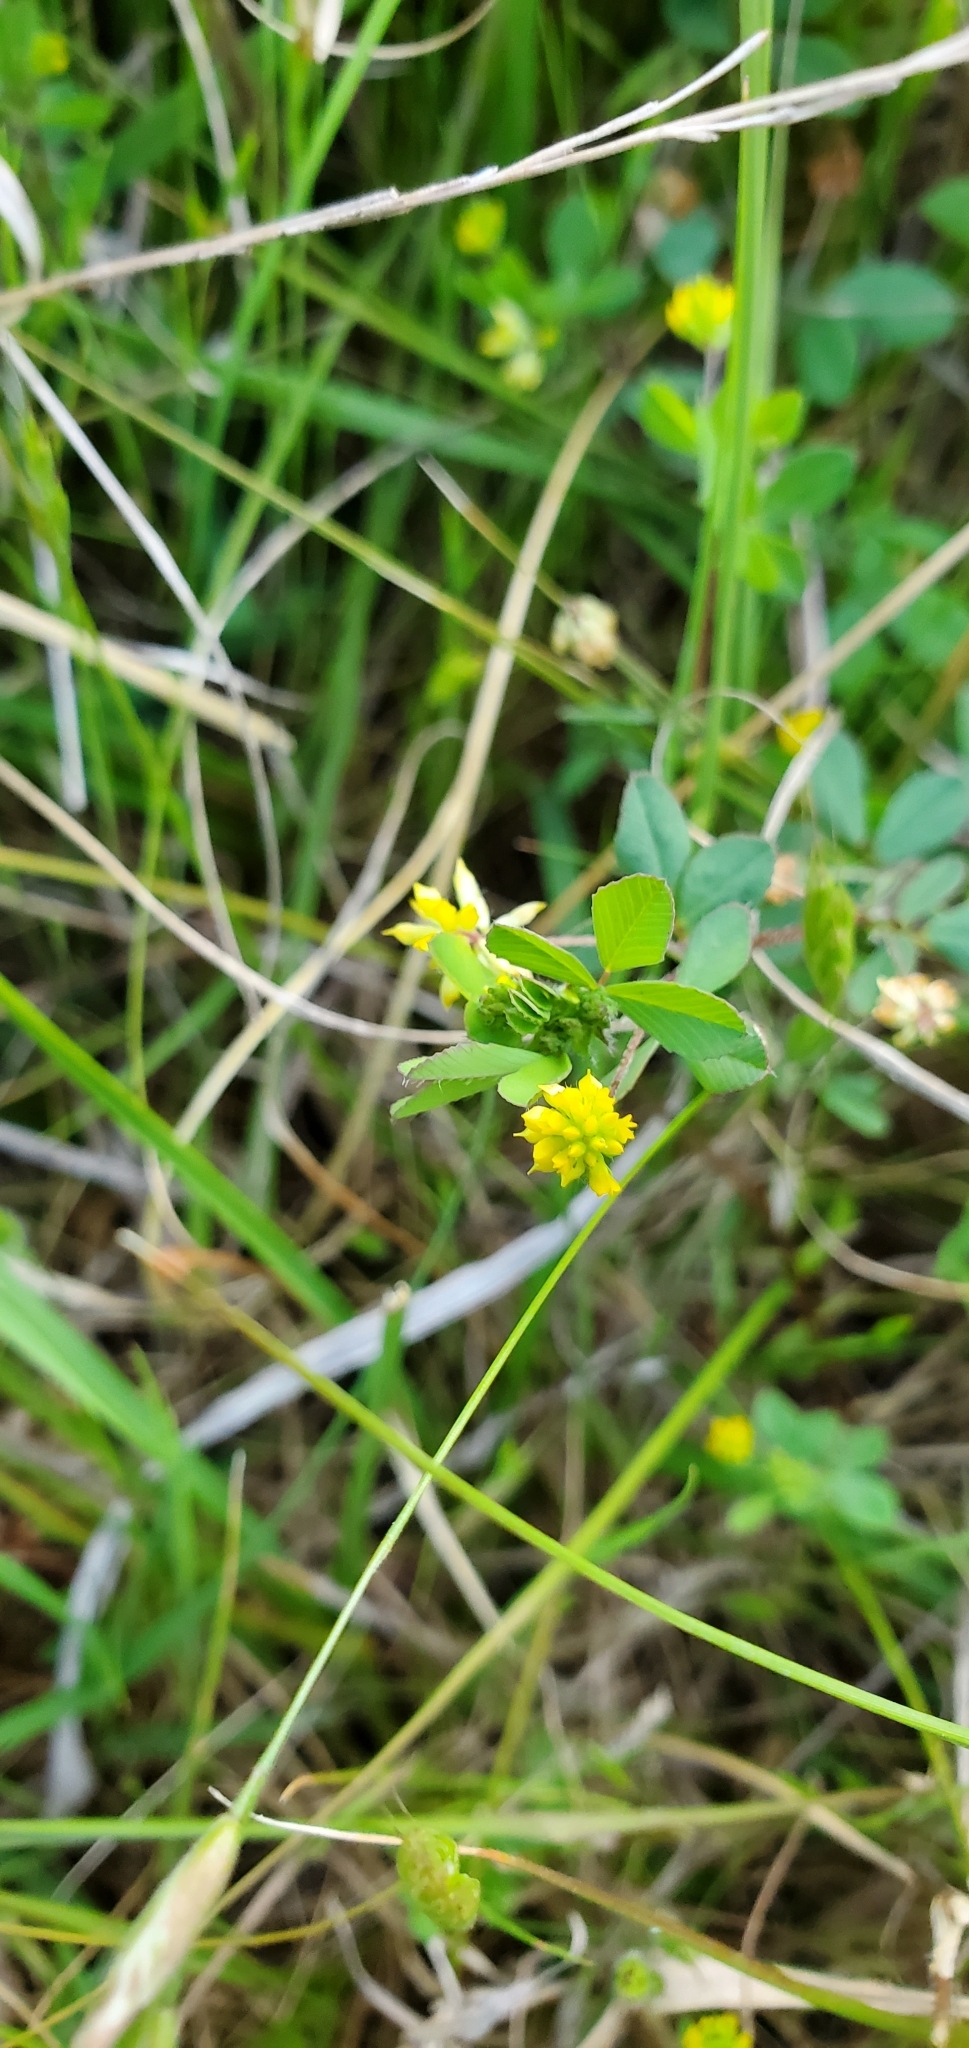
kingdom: Plantae
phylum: Tracheophyta
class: Magnoliopsida
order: Fabales
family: Fabaceae
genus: Trifolium
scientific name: Trifolium dubium
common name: Suckling clover
